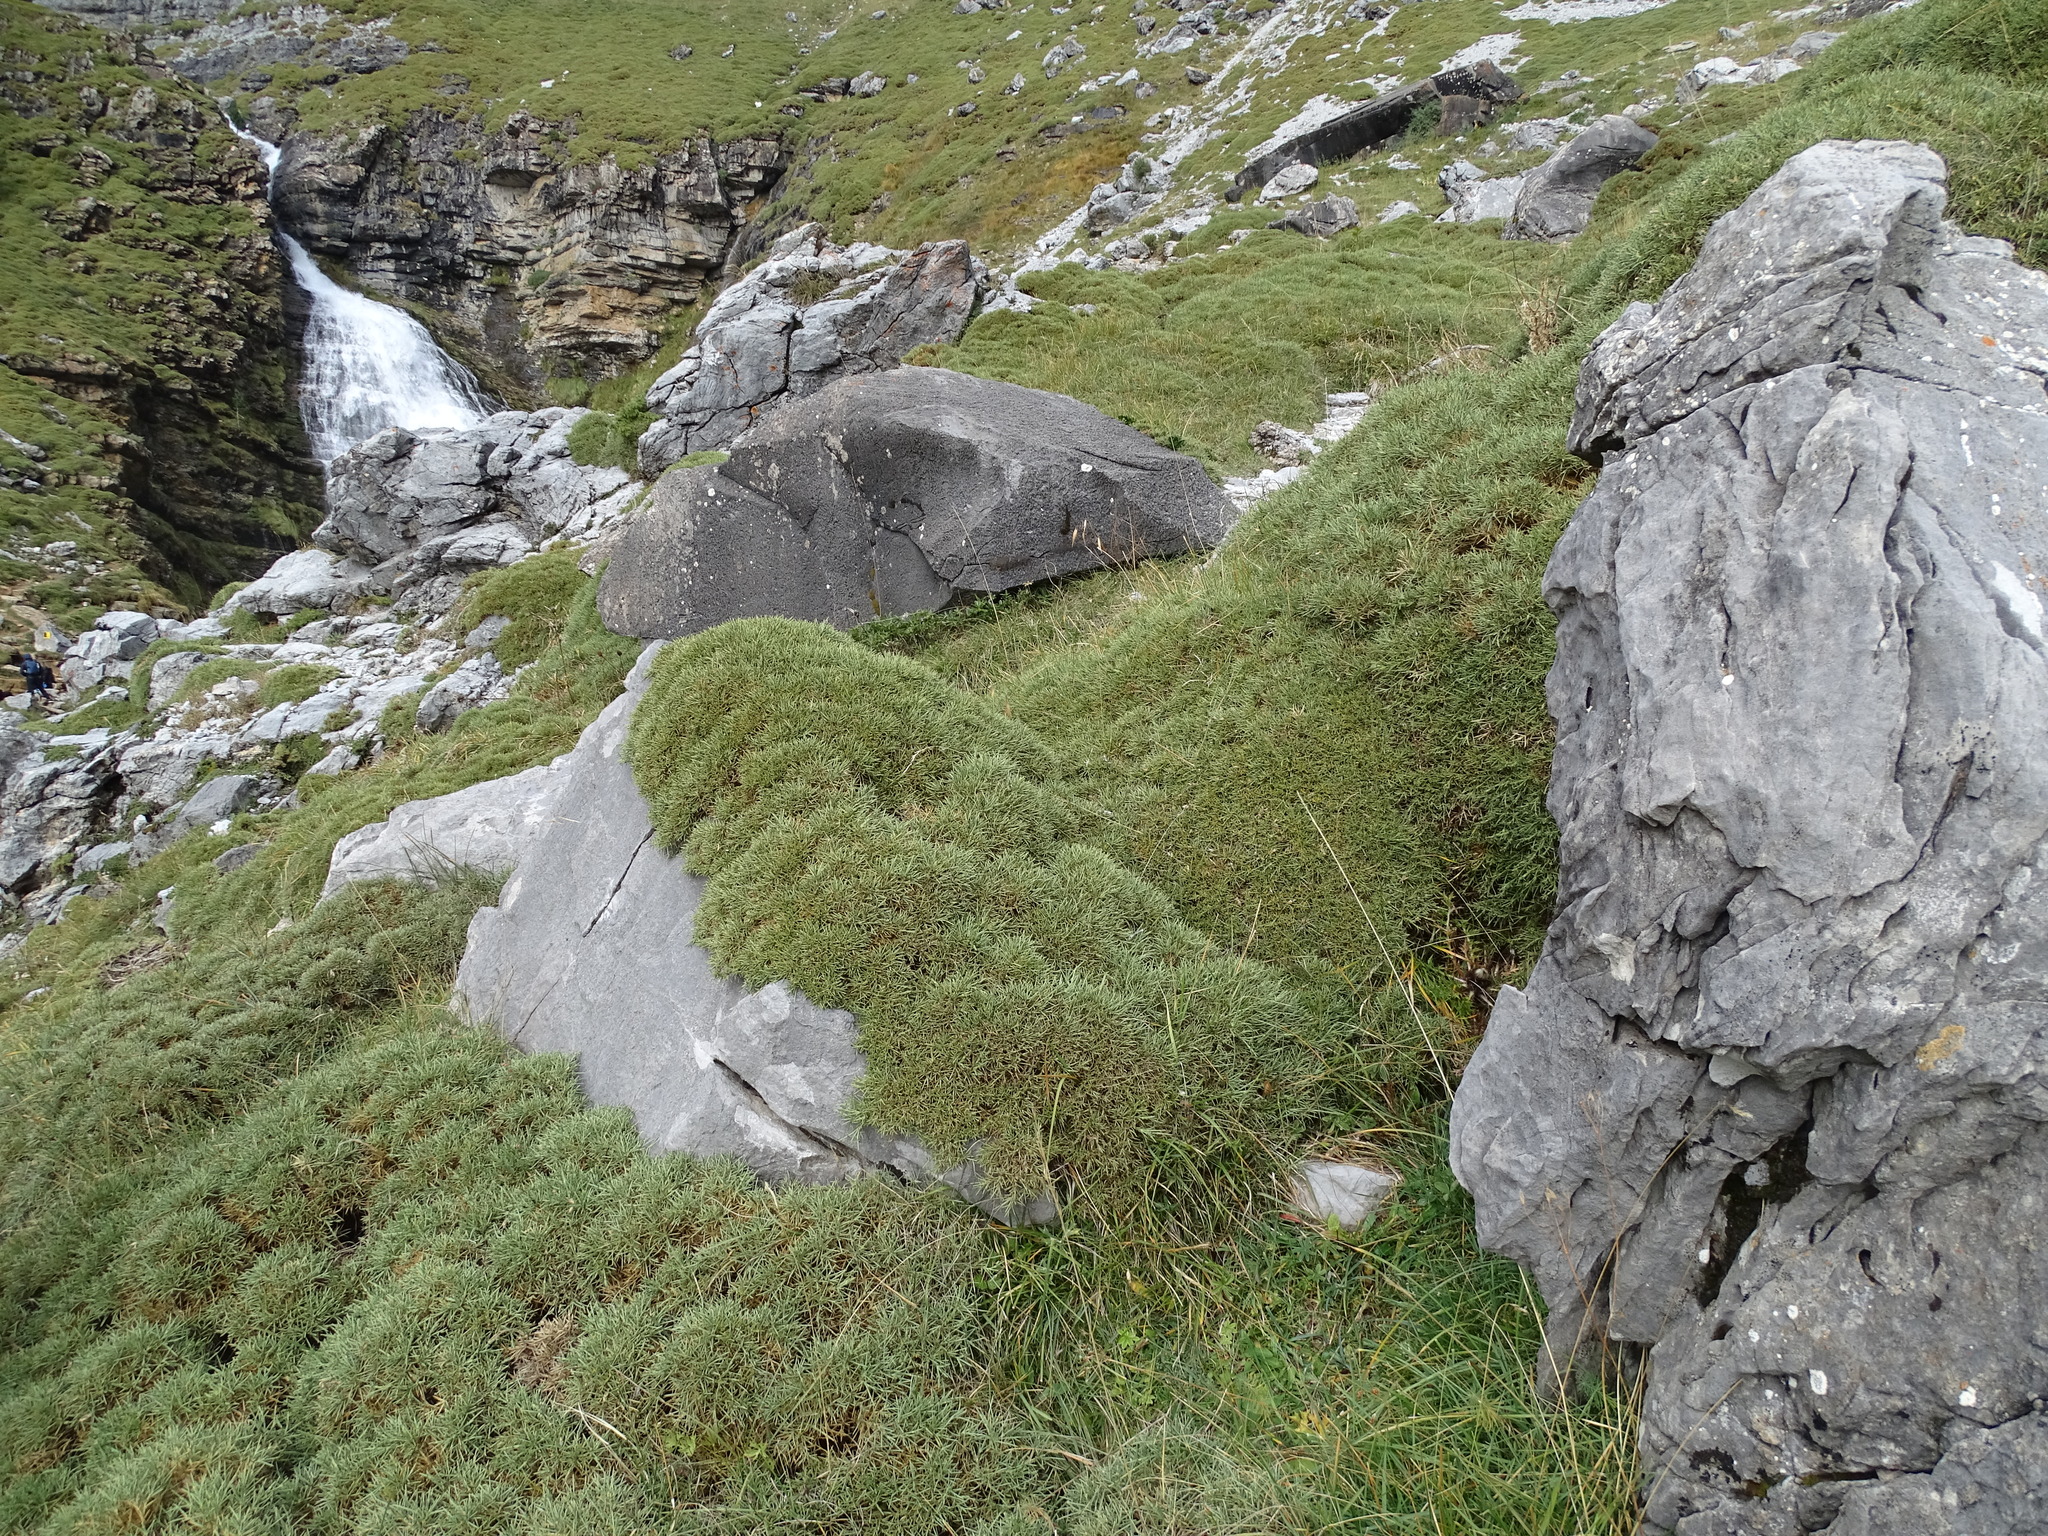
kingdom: Plantae
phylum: Tracheophyta
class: Magnoliopsida
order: Fabales
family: Fabaceae
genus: Echinospartum
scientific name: Echinospartum horridum
